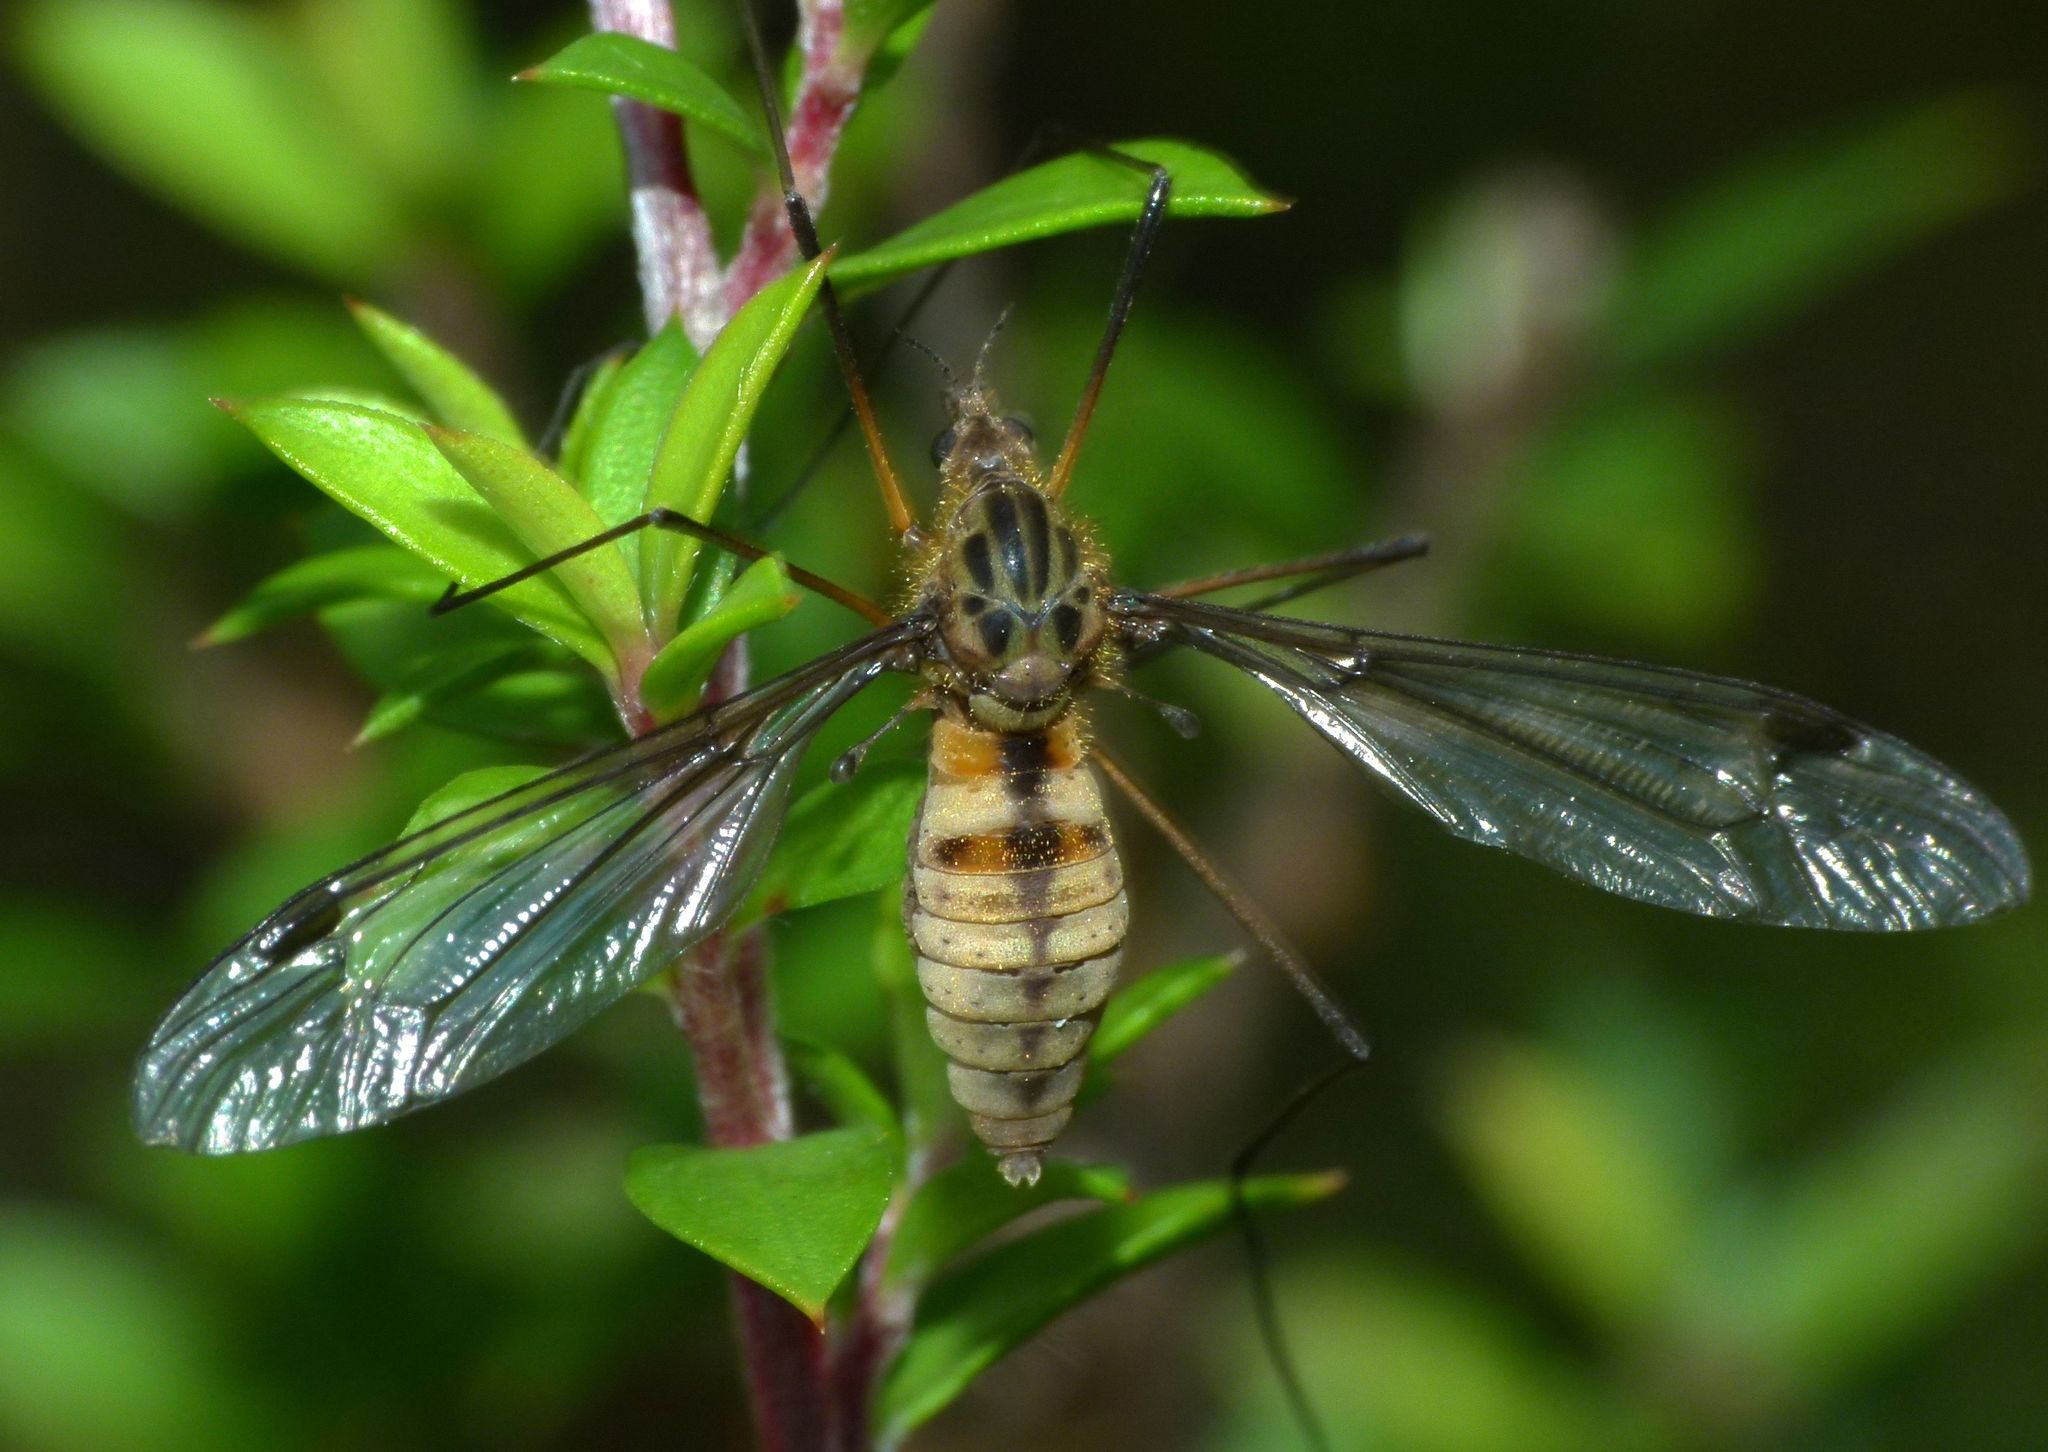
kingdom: Animalia
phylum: Arthropoda
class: Insecta
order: Diptera
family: Tipulidae
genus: Leptotarsus
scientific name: Leptotarsus vulpinus
